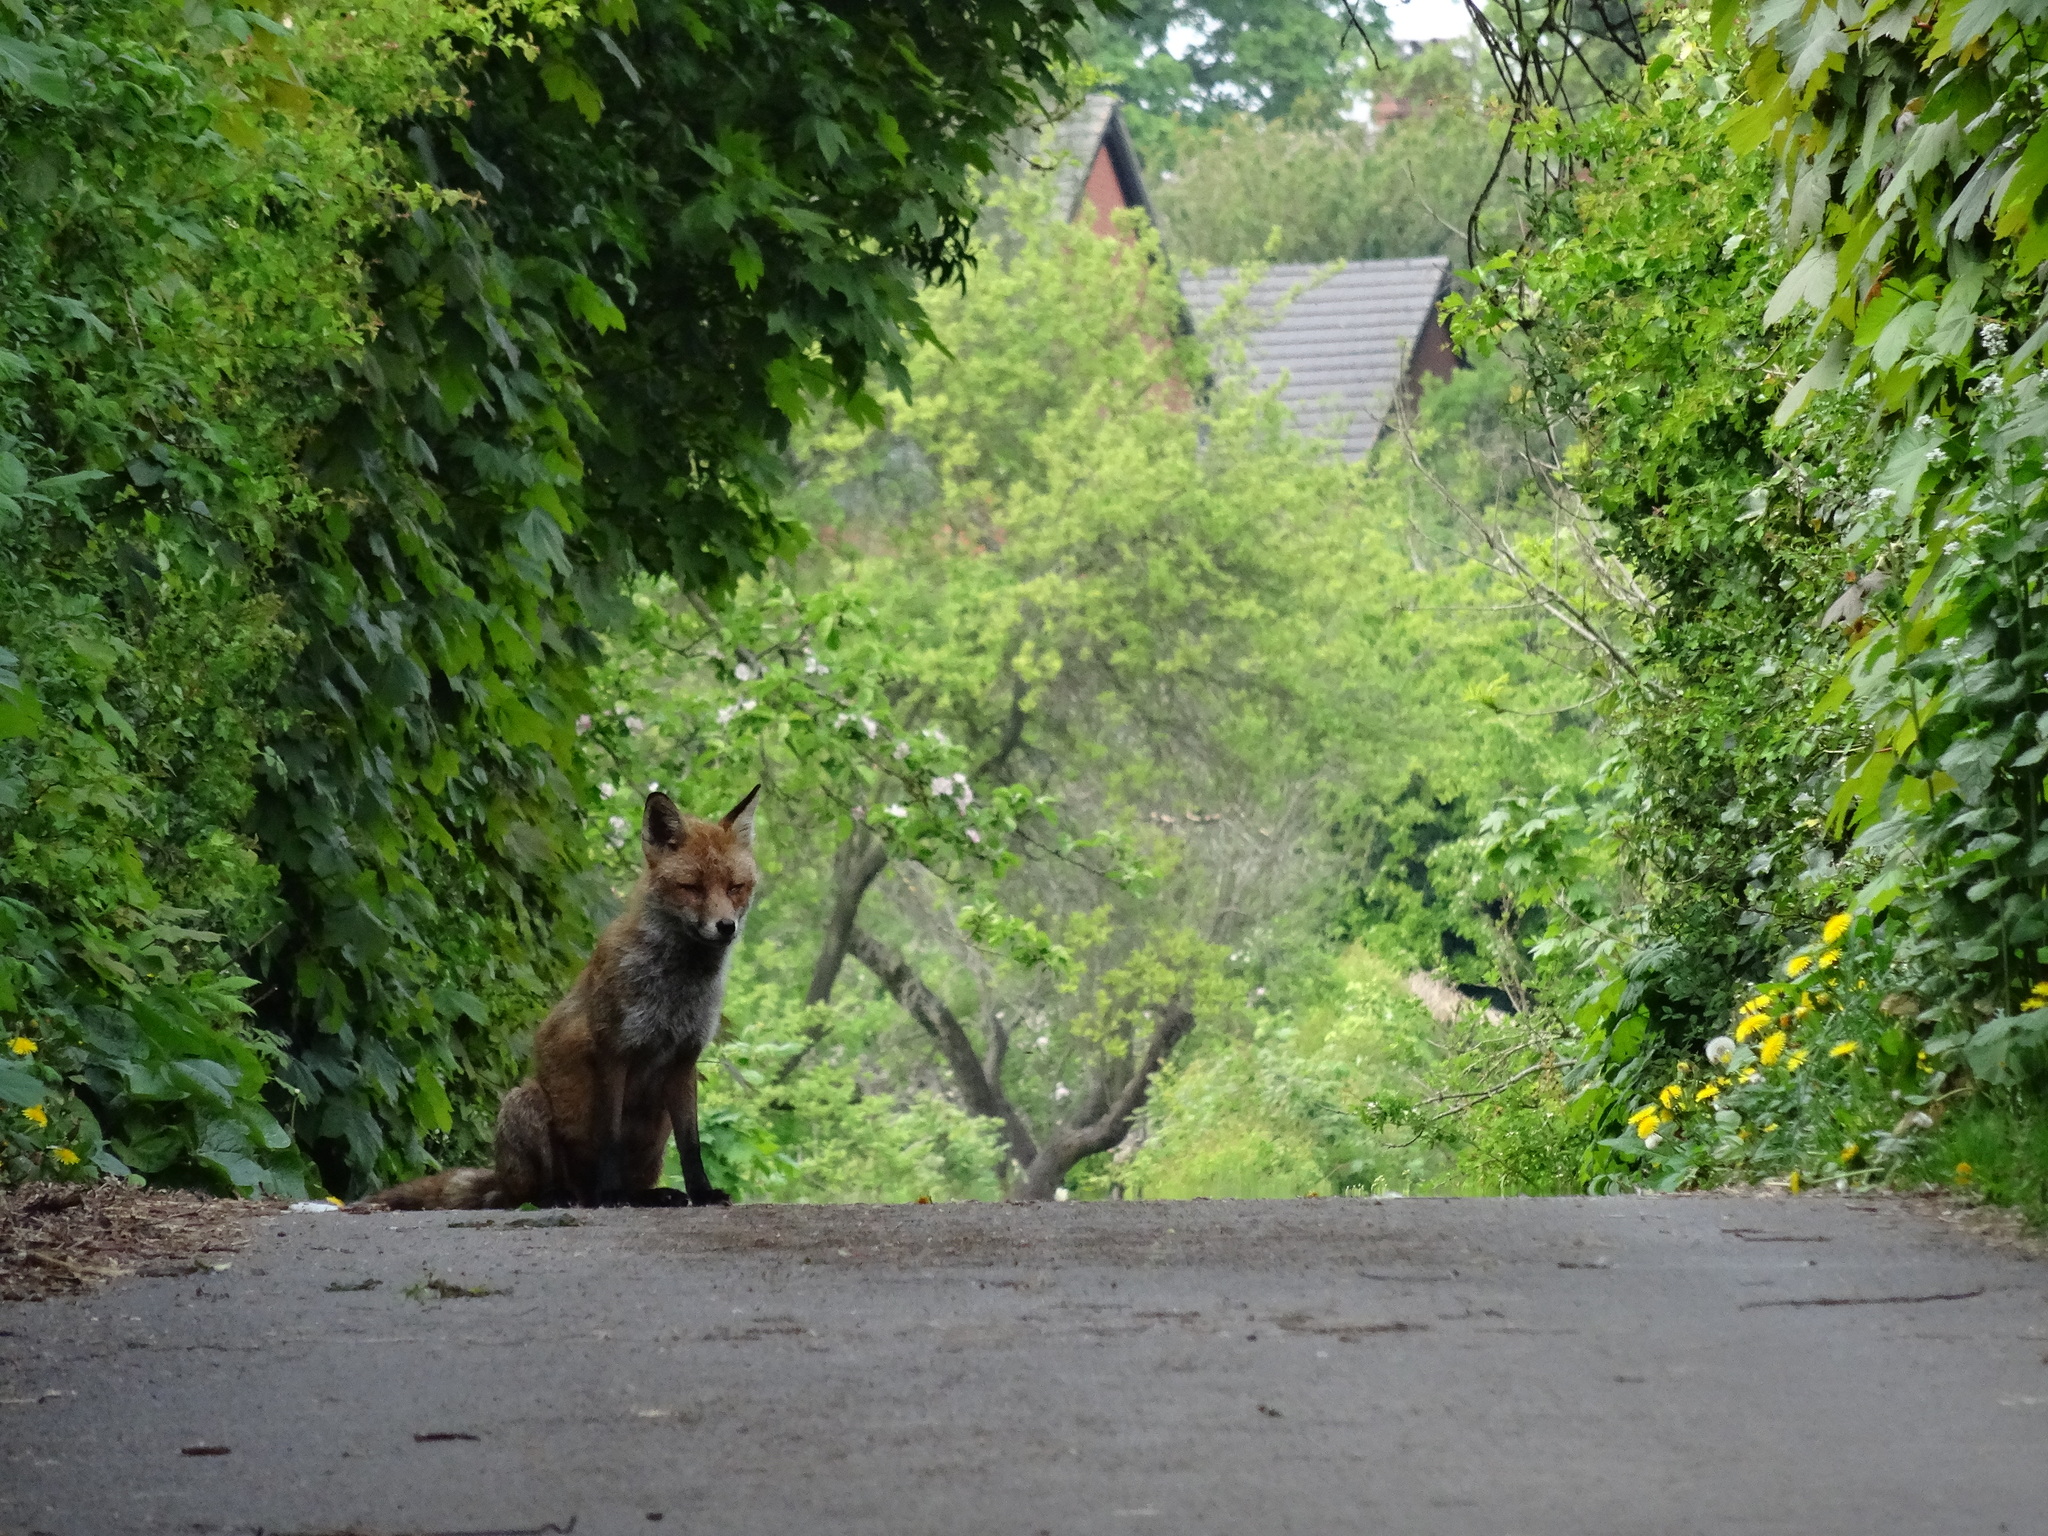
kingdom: Animalia
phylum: Chordata
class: Mammalia
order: Carnivora
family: Canidae
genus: Vulpes
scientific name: Vulpes vulpes
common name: Red fox
